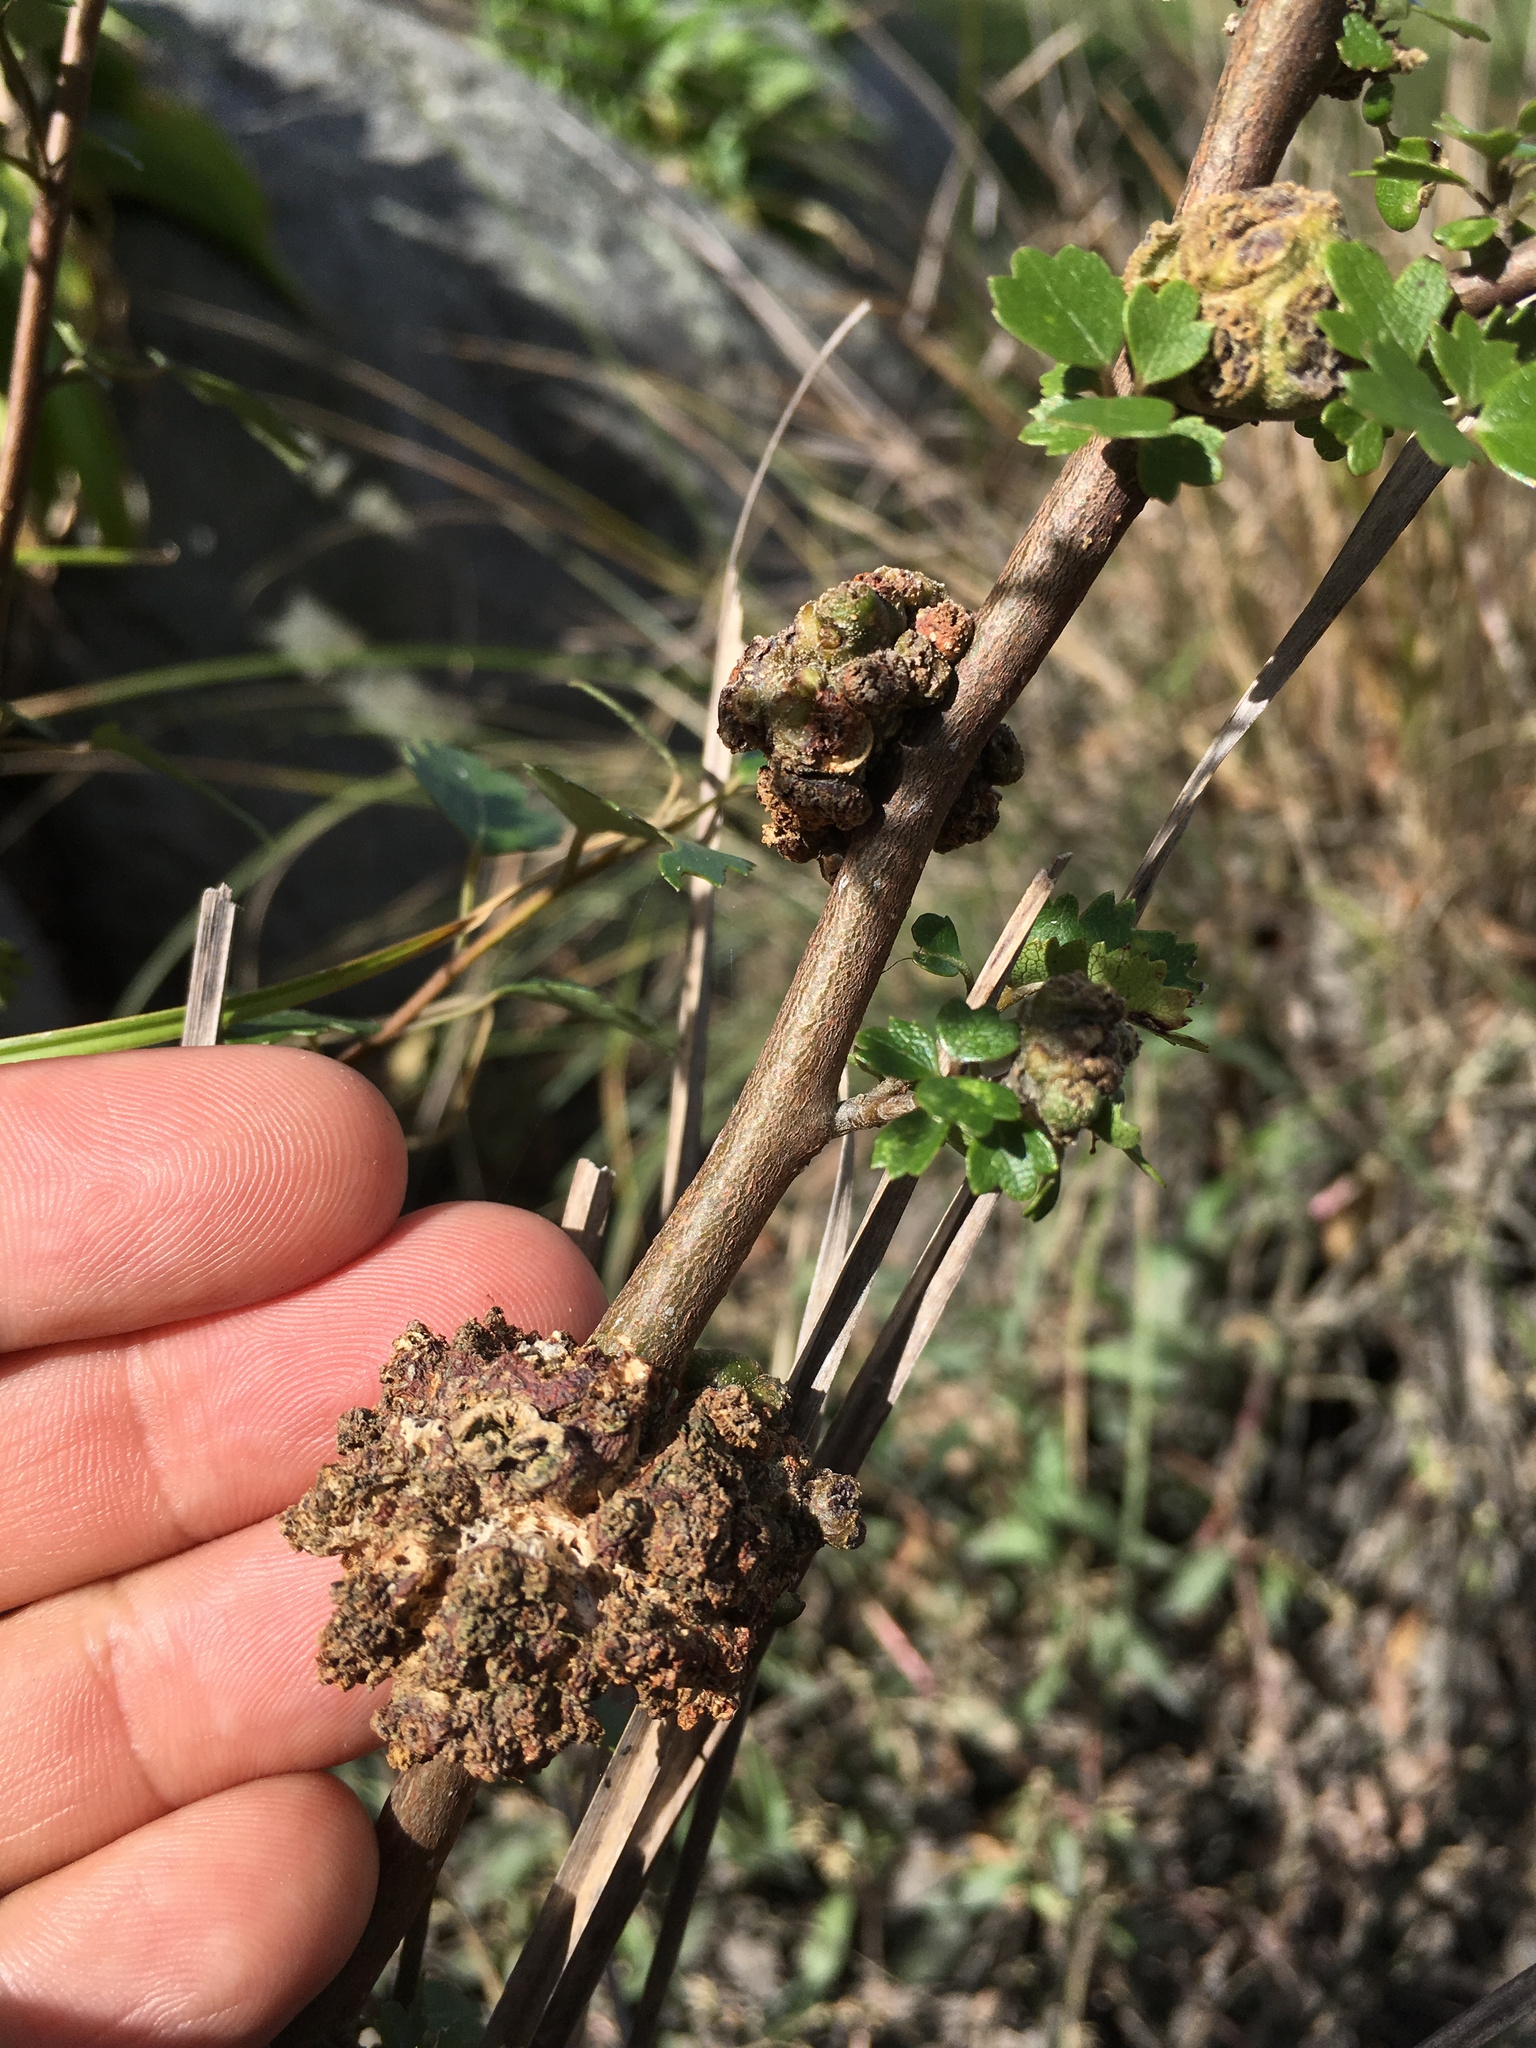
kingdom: Animalia
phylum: Arthropoda
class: Arachnida
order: Trombidiformes
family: Eriophyidae
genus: Eriophyes
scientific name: Eriophyes hoheriae
